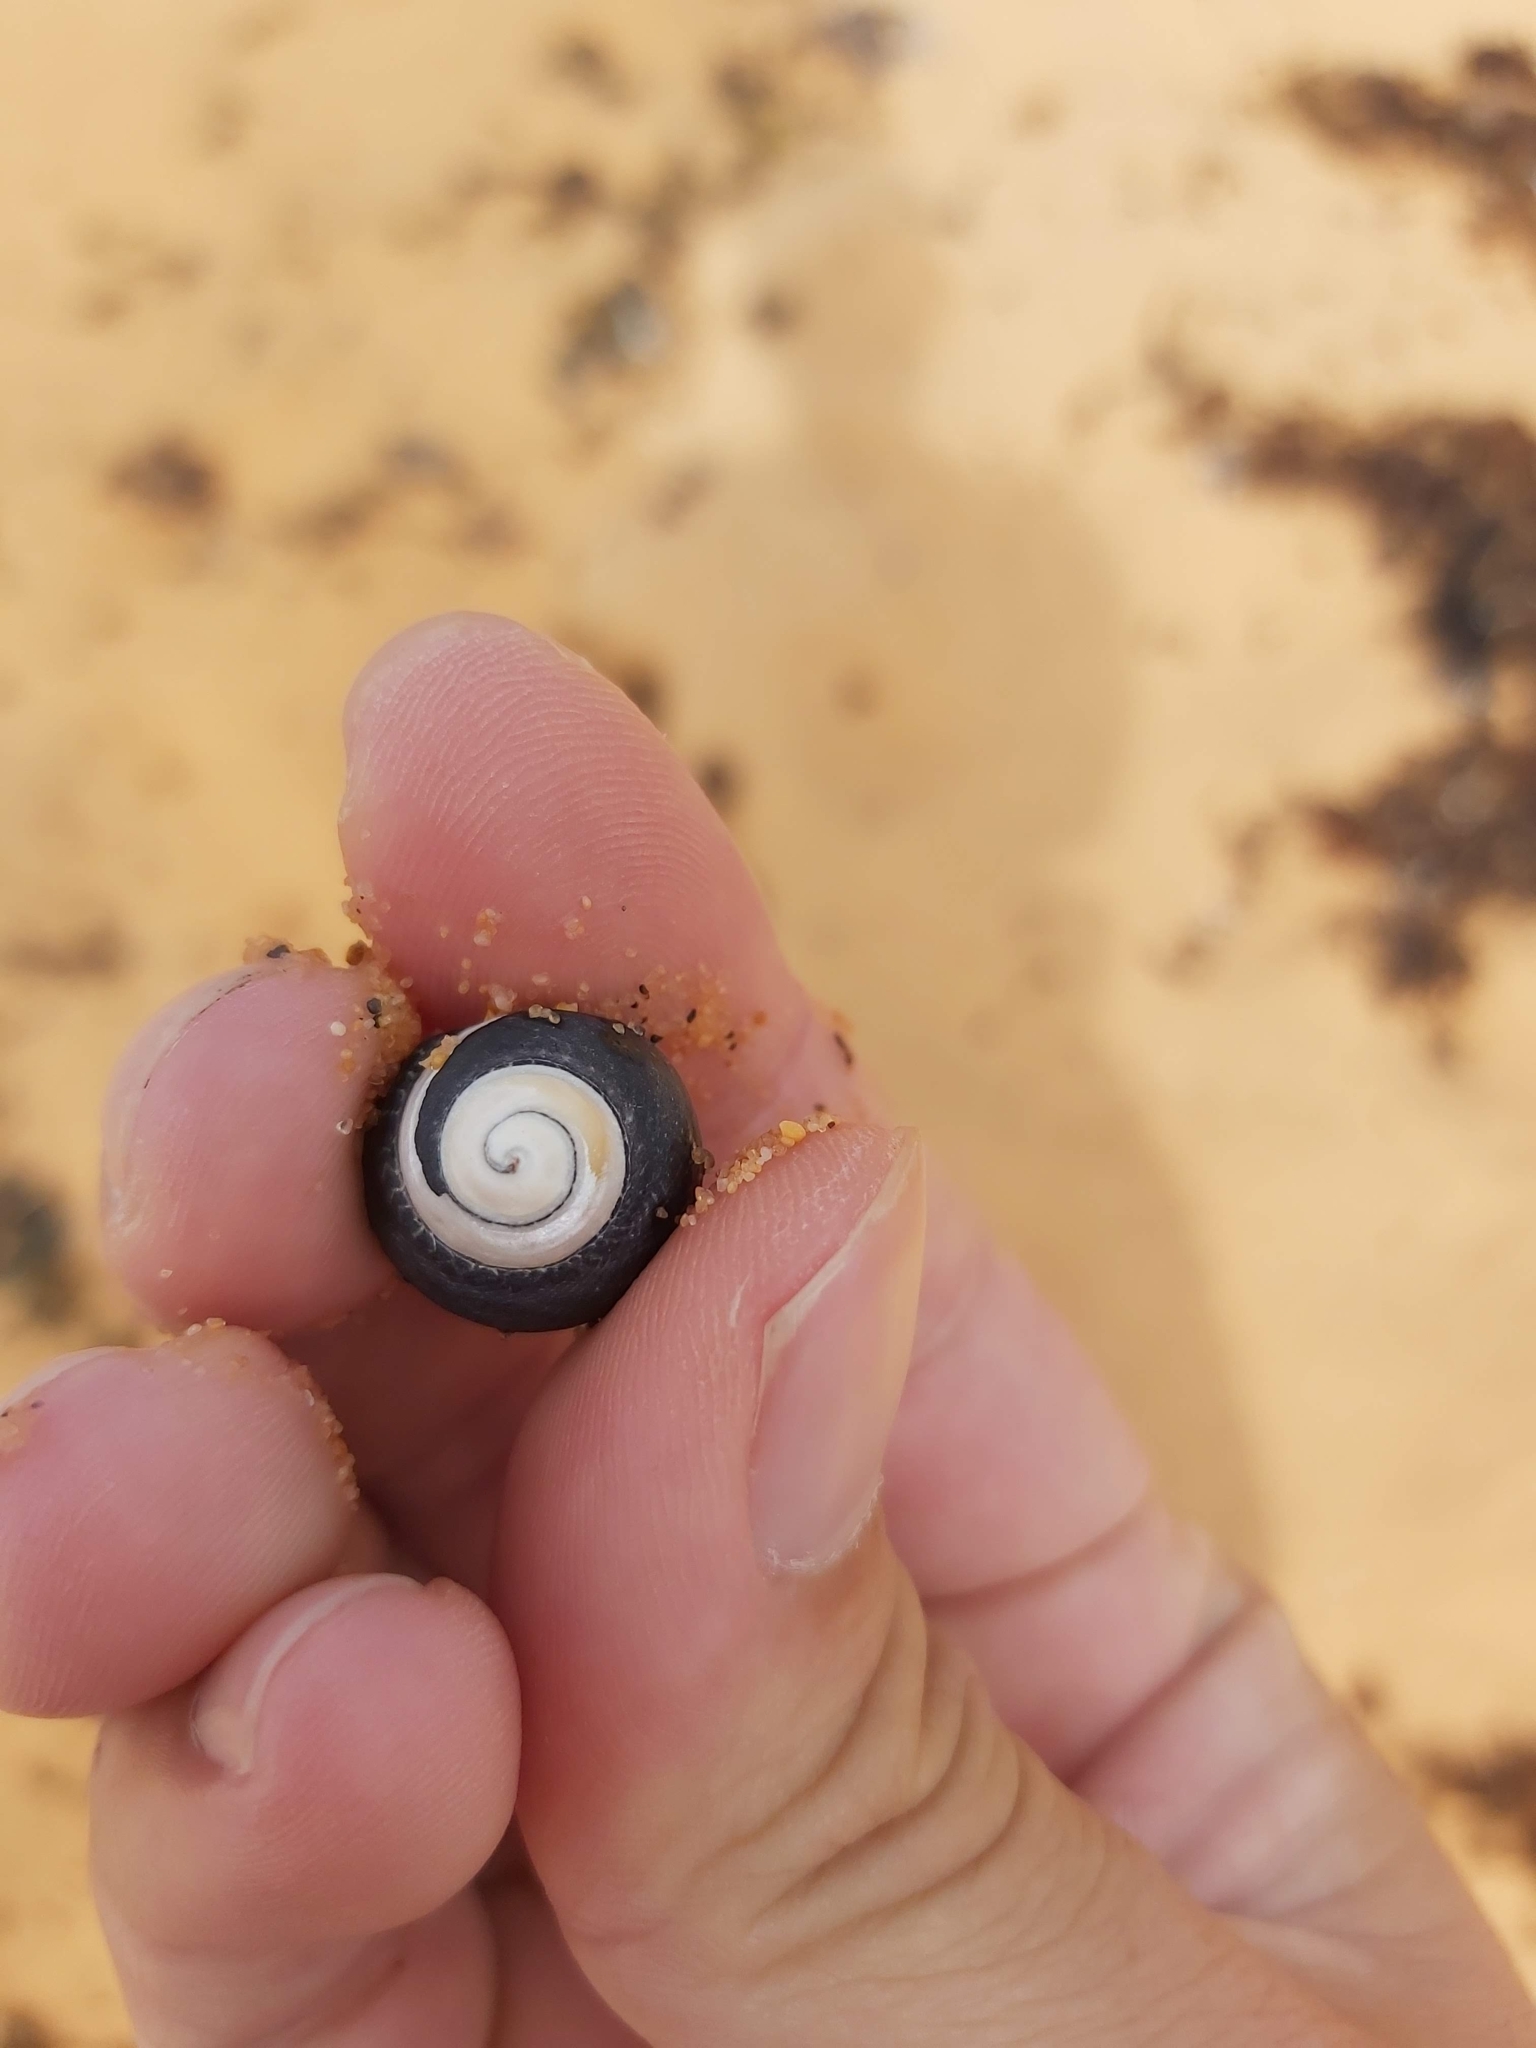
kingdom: Animalia
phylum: Mollusca
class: Gastropoda
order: Trochida
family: Trochidae
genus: Diloma
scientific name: Diloma concameratum
